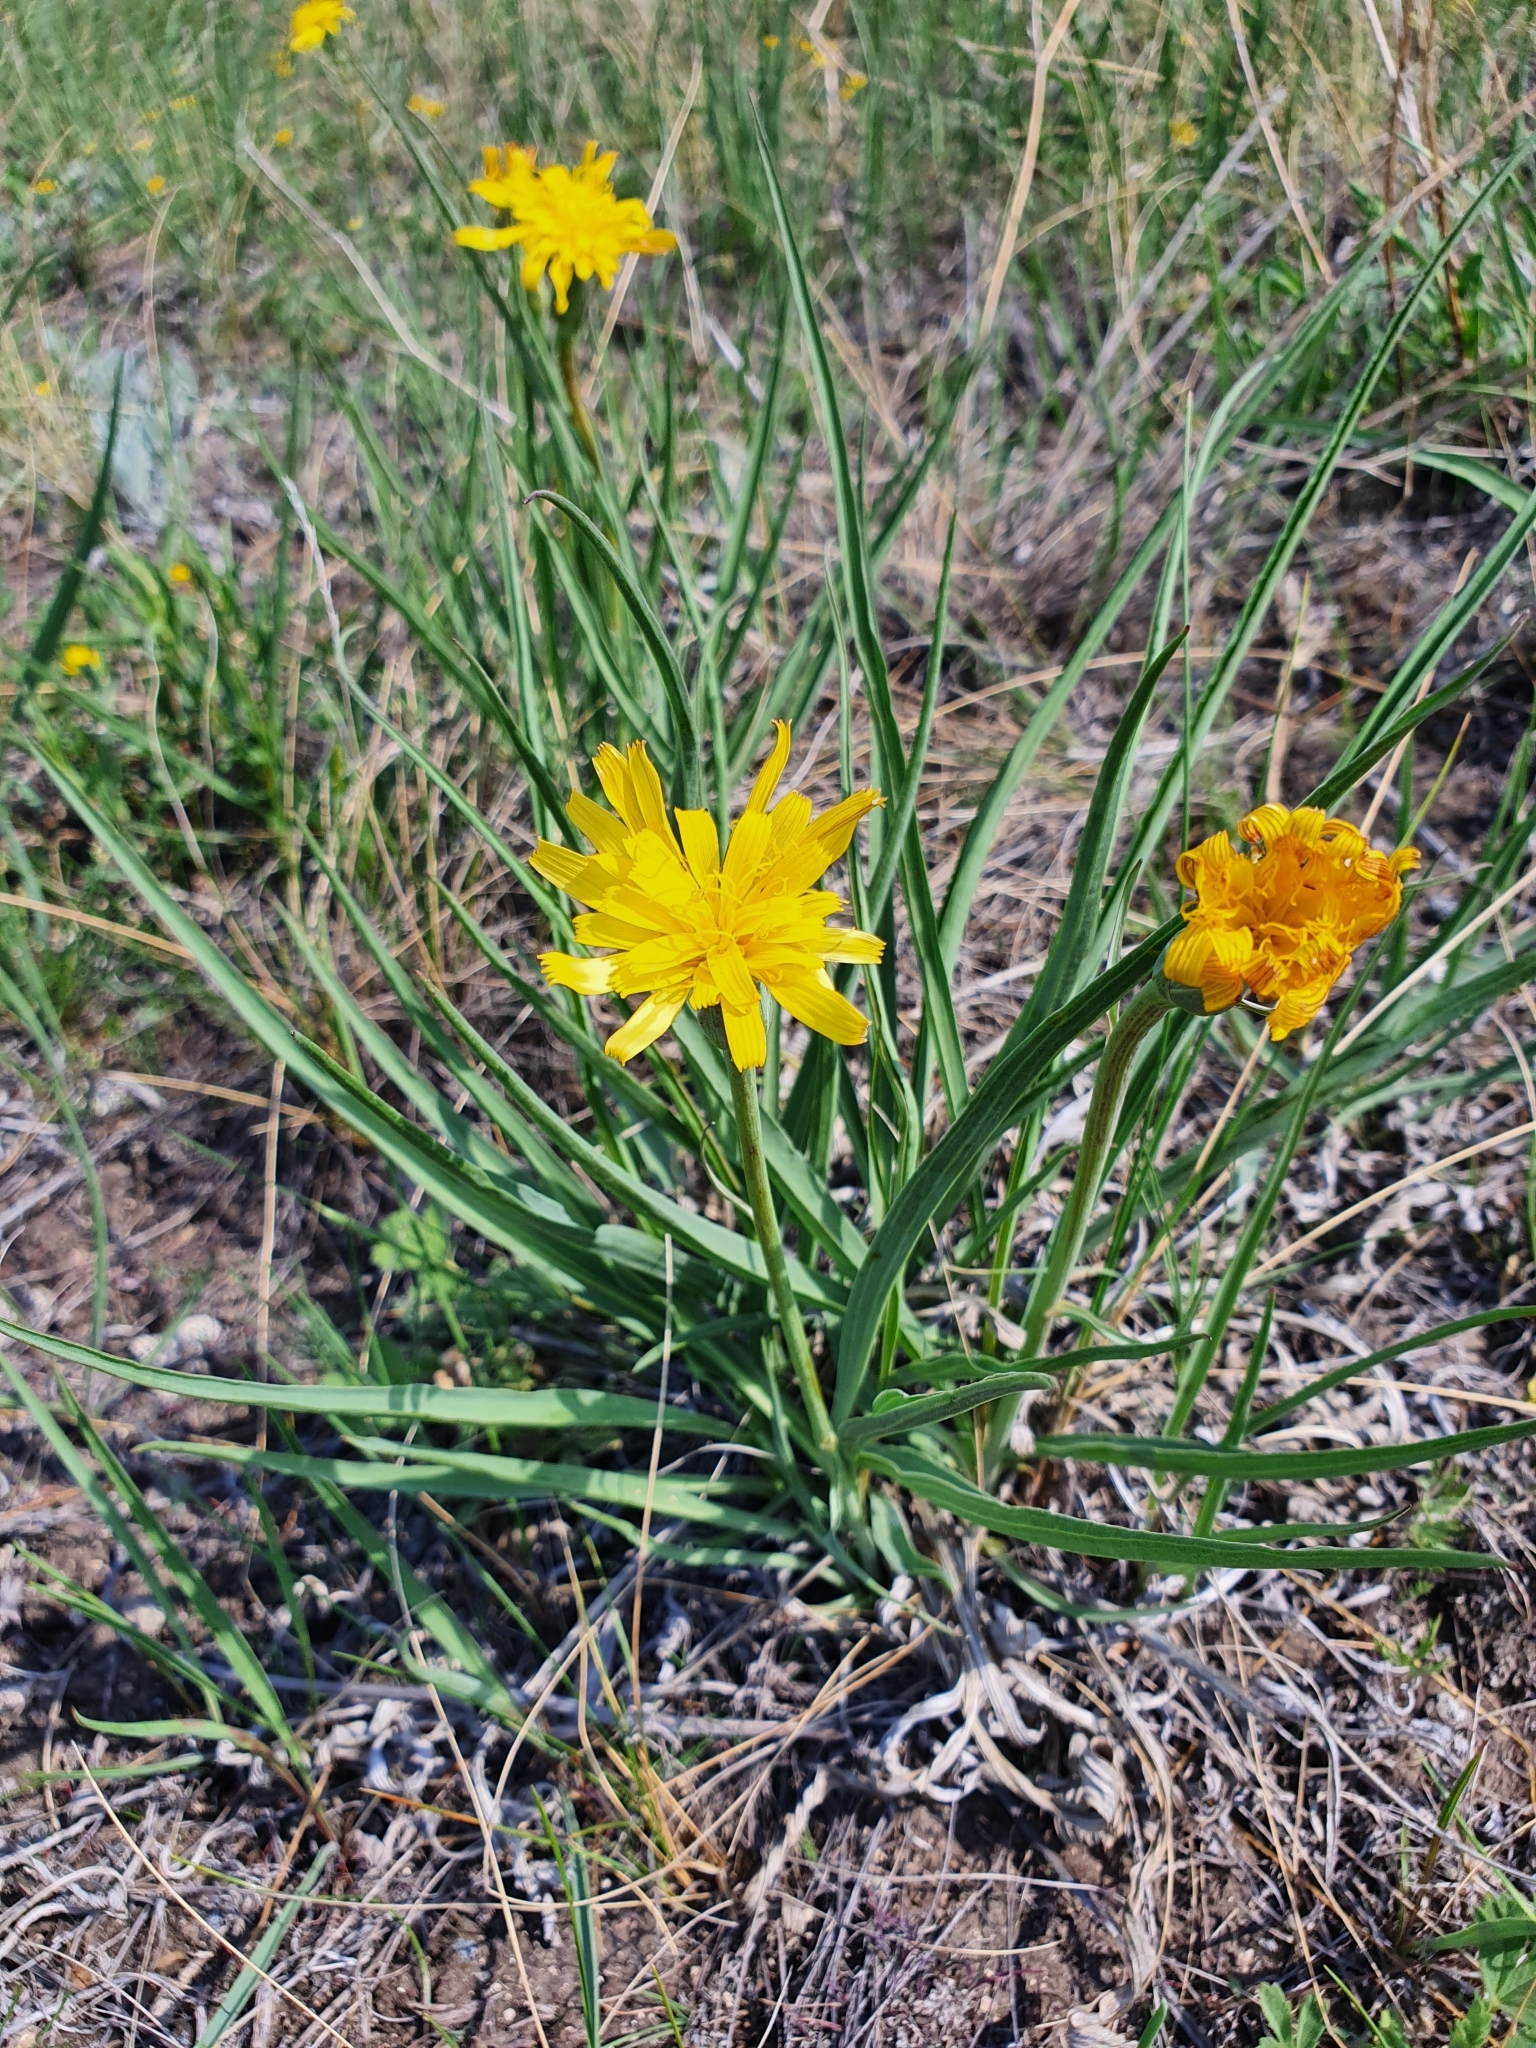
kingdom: Plantae
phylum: Tracheophyta
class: Magnoliopsida
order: Asterales
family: Asteraceae
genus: Takhtajaniantha
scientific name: Takhtajaniantha austriaca
